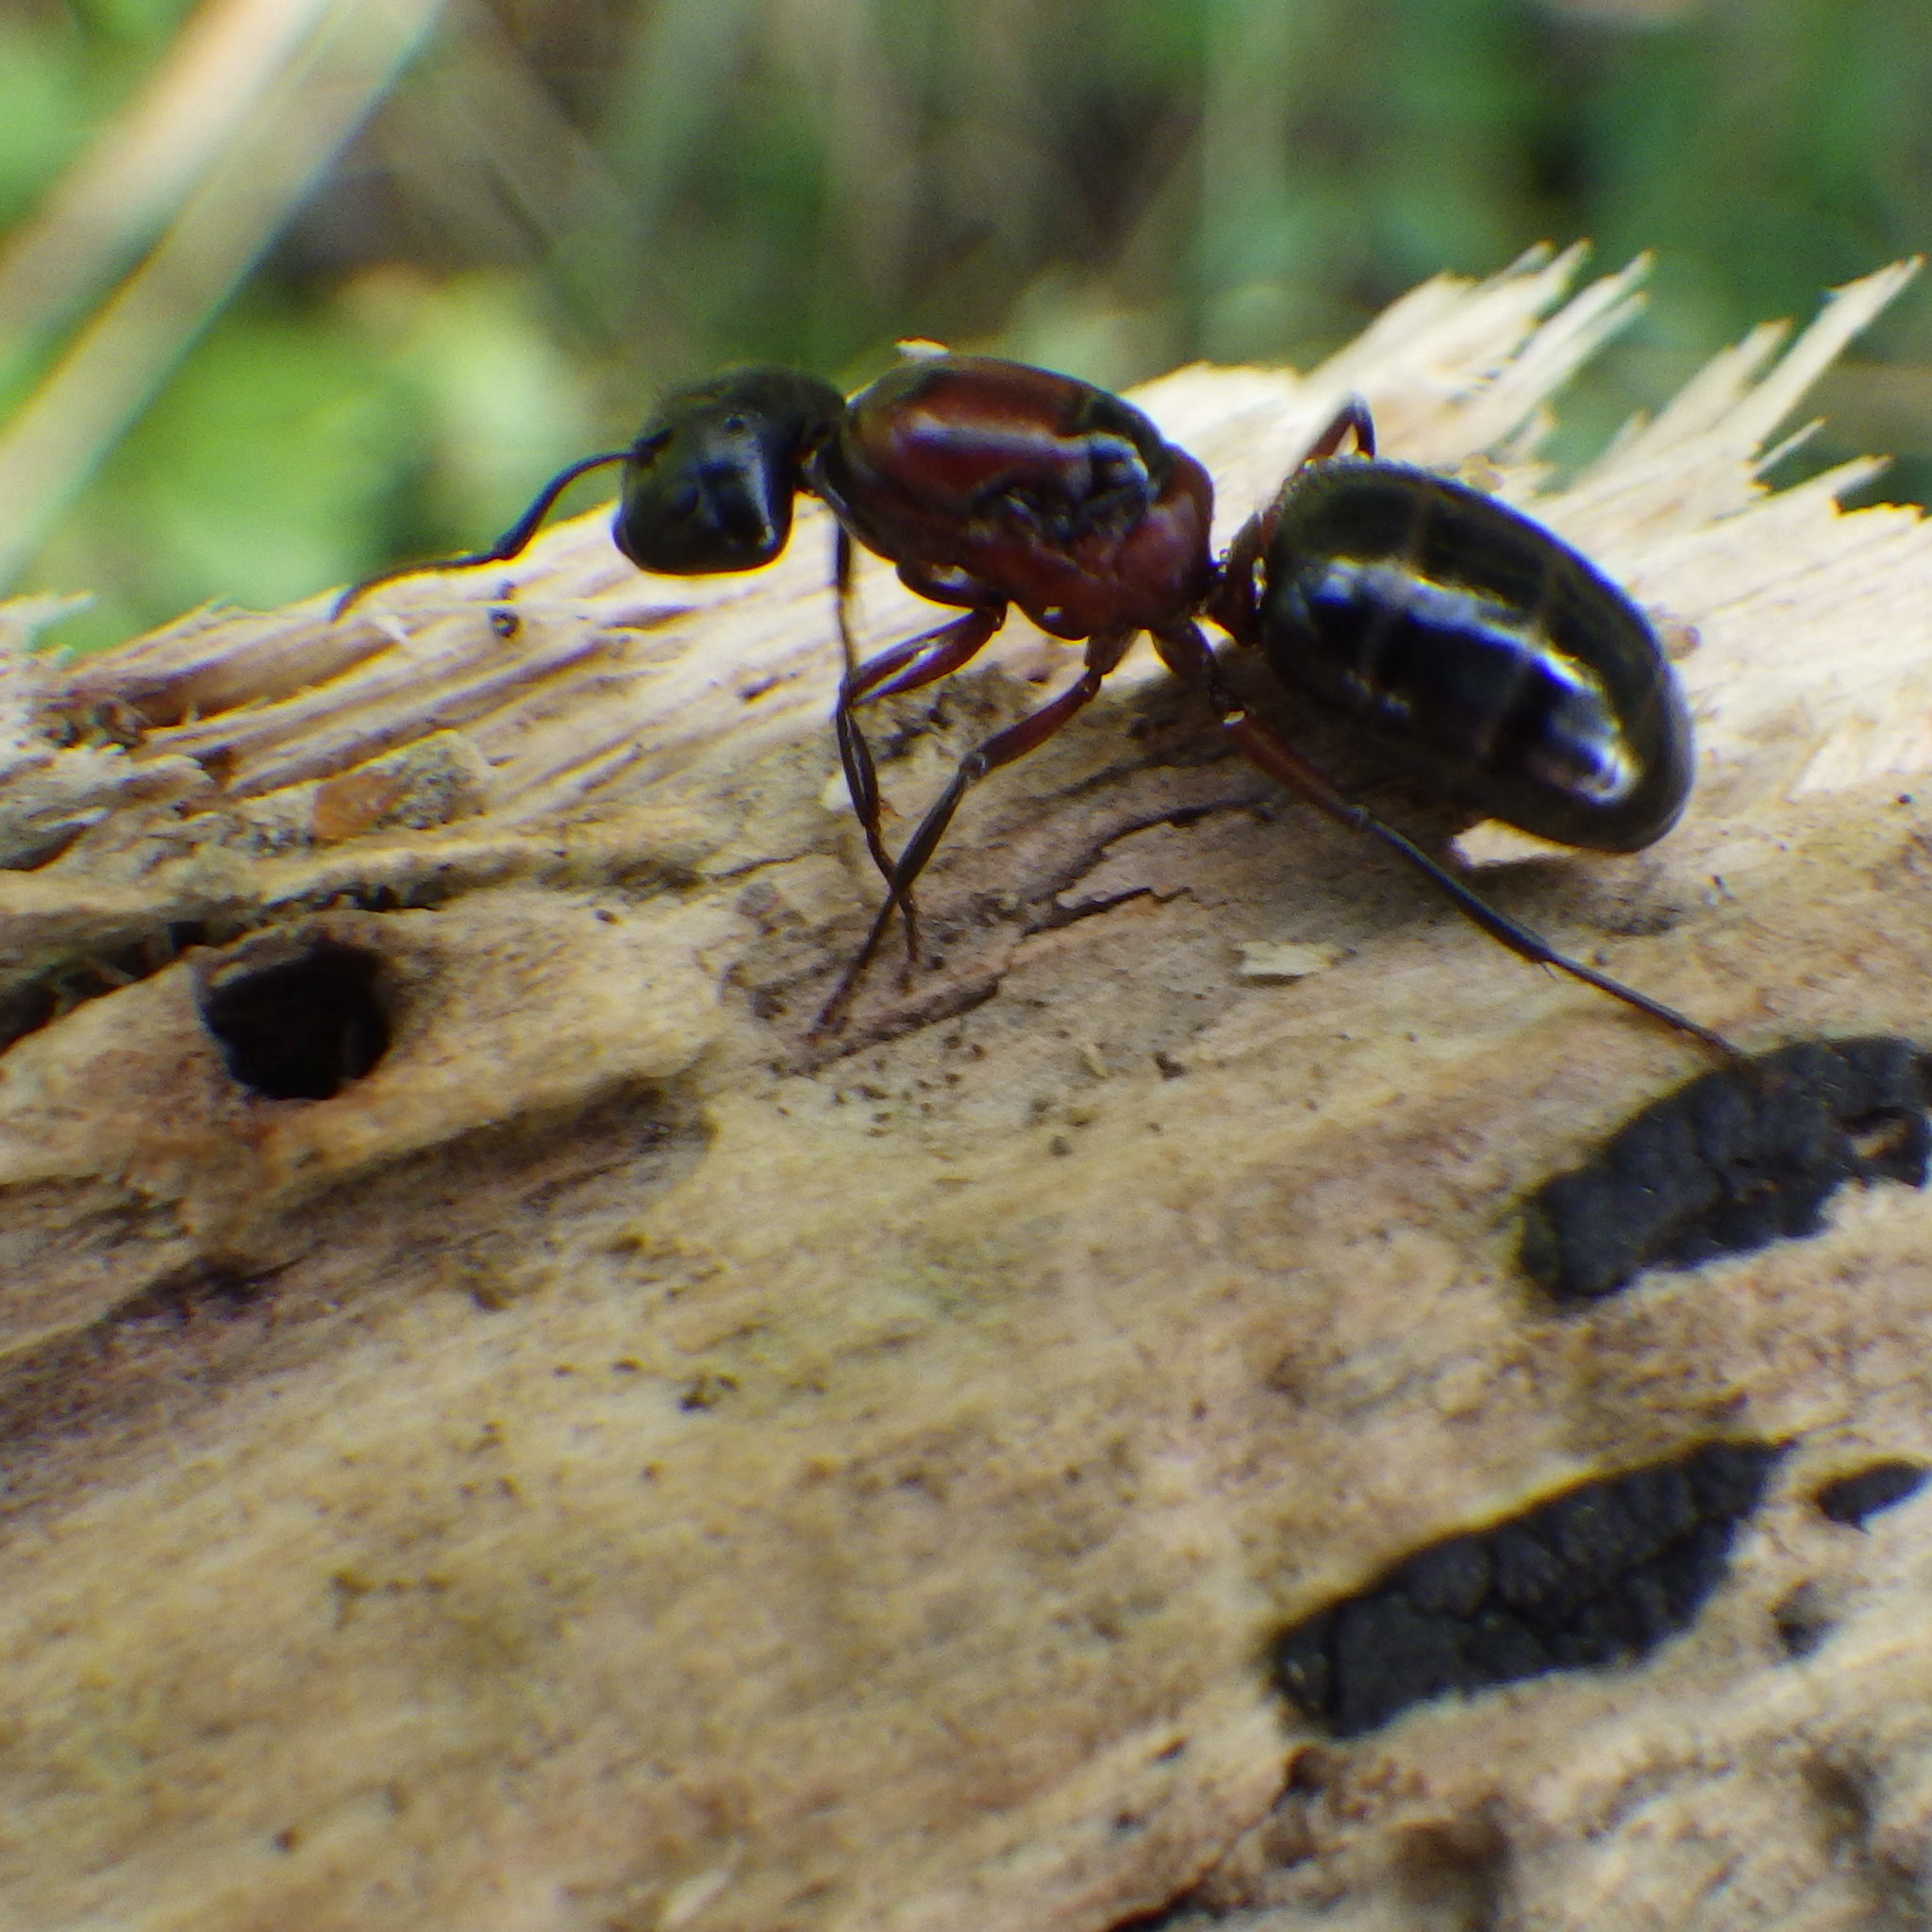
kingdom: Animalia
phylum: Arthropoda
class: Insecta
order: Hymenoptera
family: Formicidae
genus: Camponotus
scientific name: Camponotus novaeboracensis
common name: New york carpenter ant
